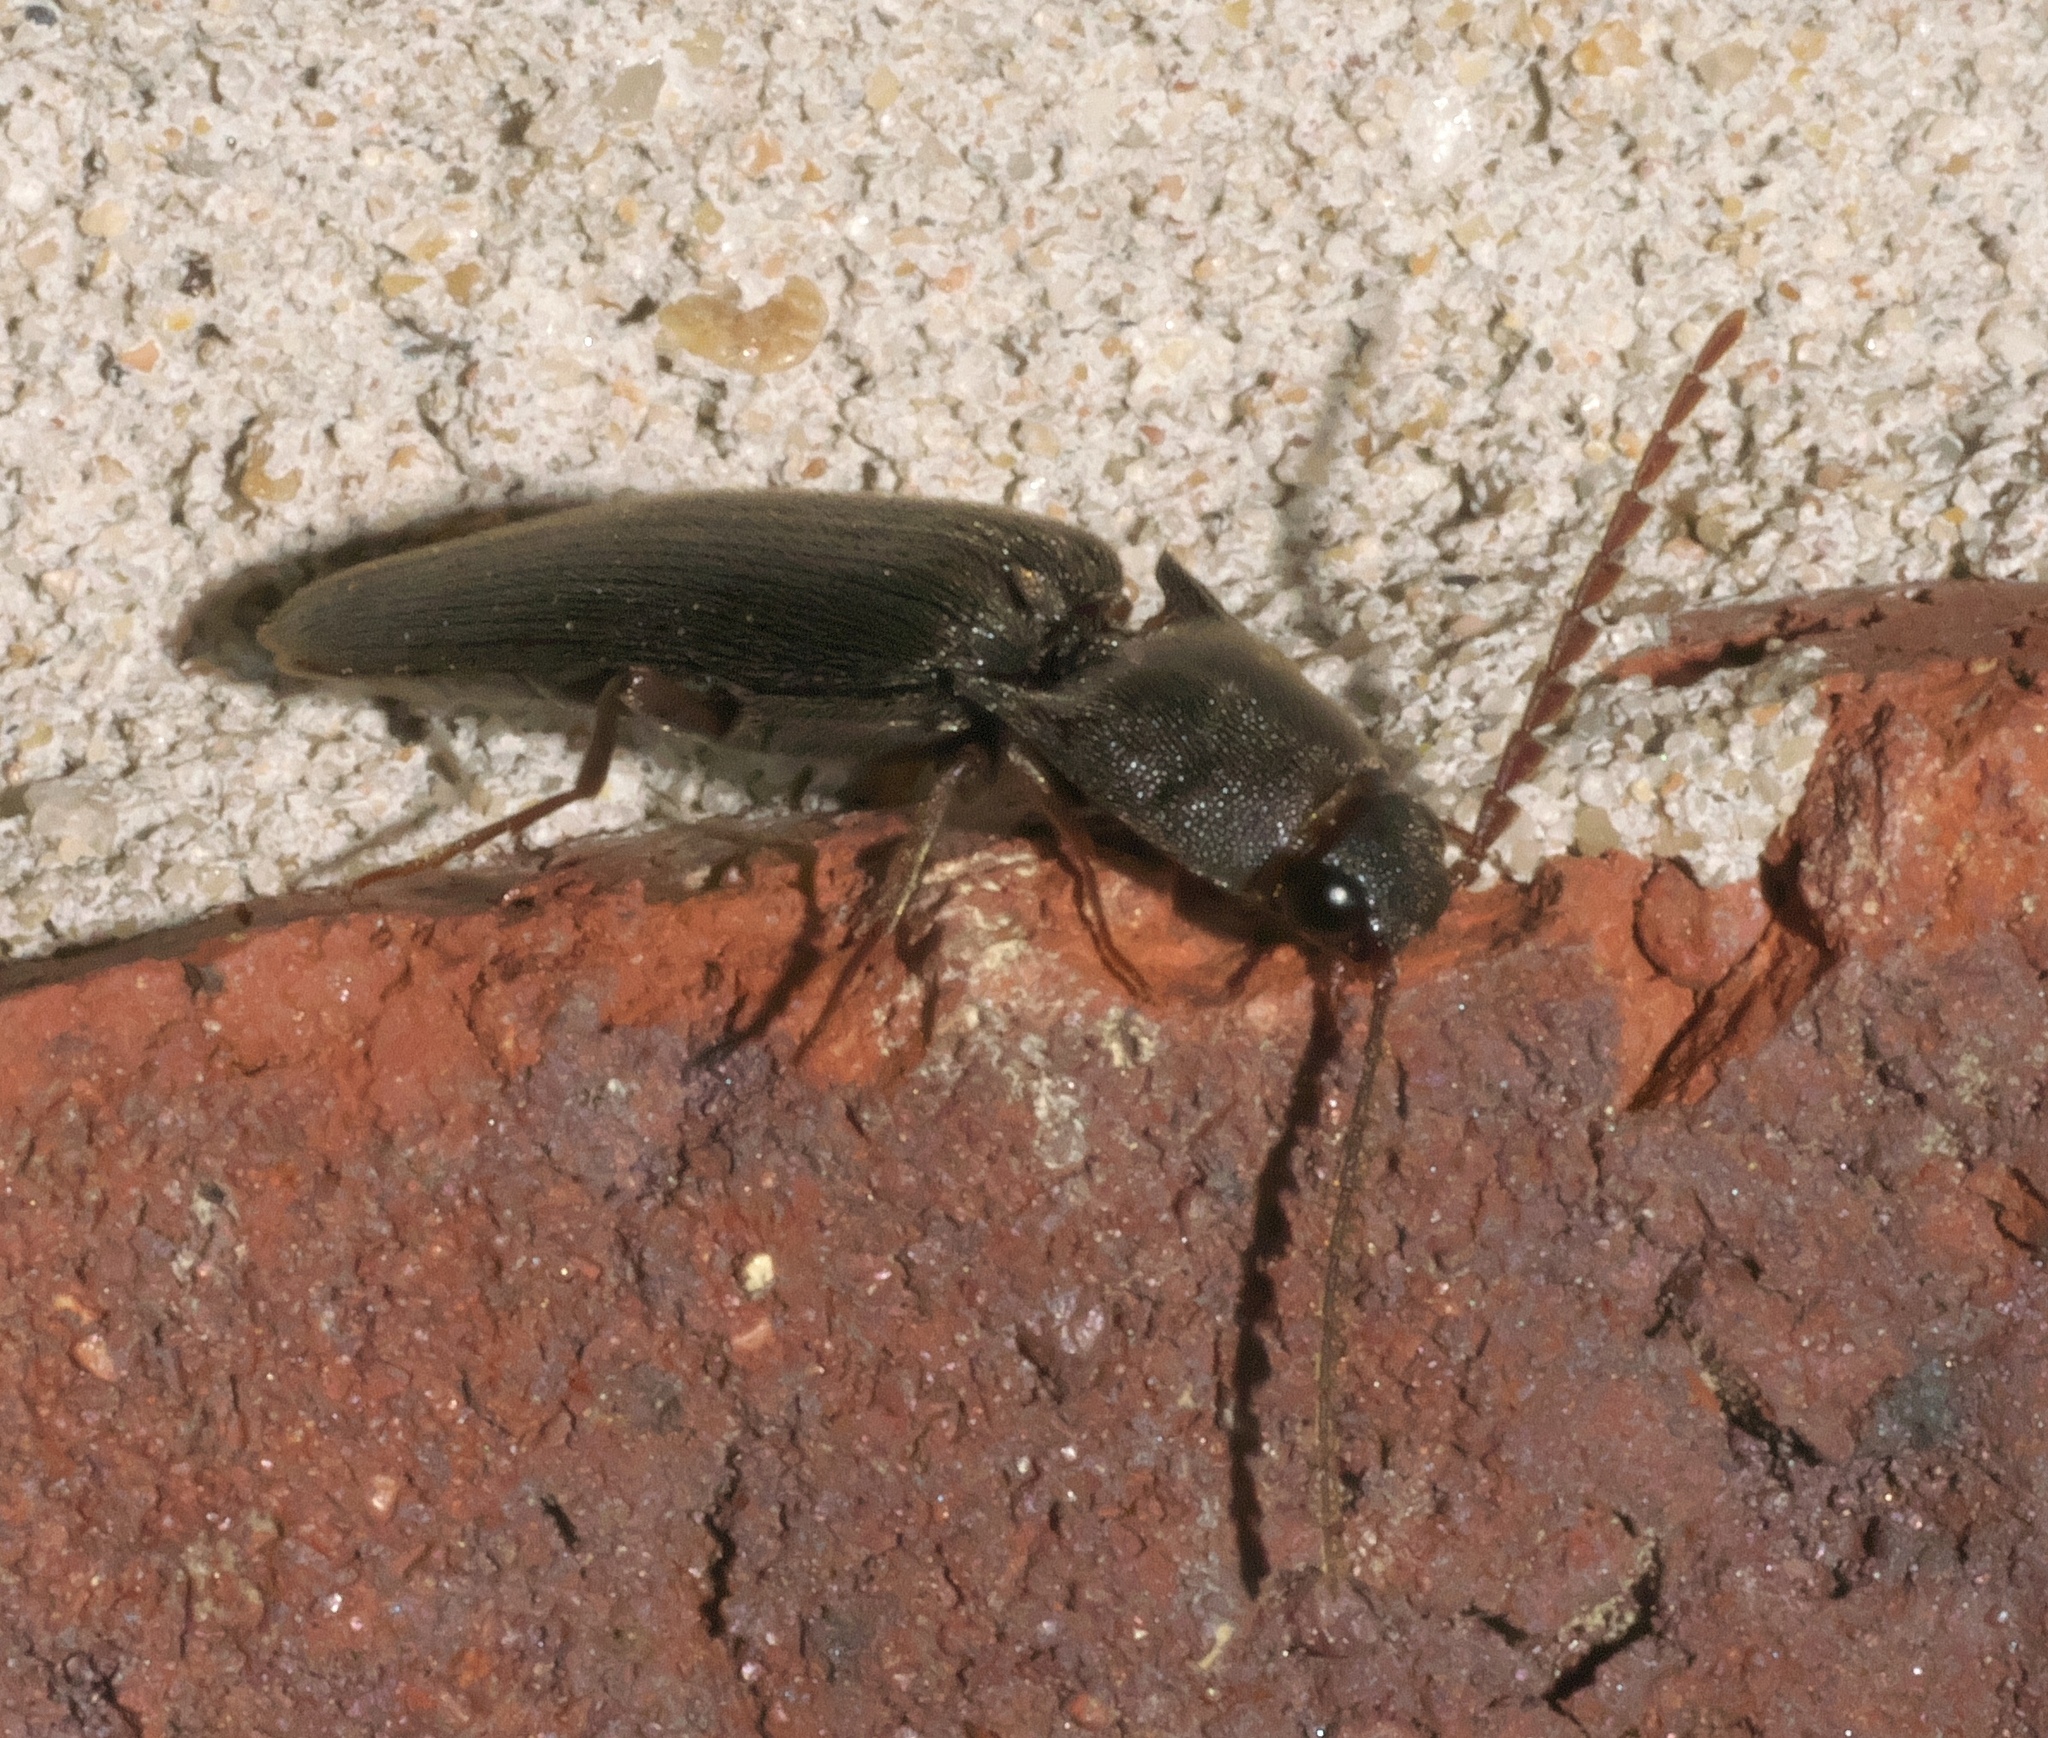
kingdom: Animalia
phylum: Arthropoda
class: Insecta
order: Coleoptera
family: Elateridae
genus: Megapenthes
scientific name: Megapenthes insignis
